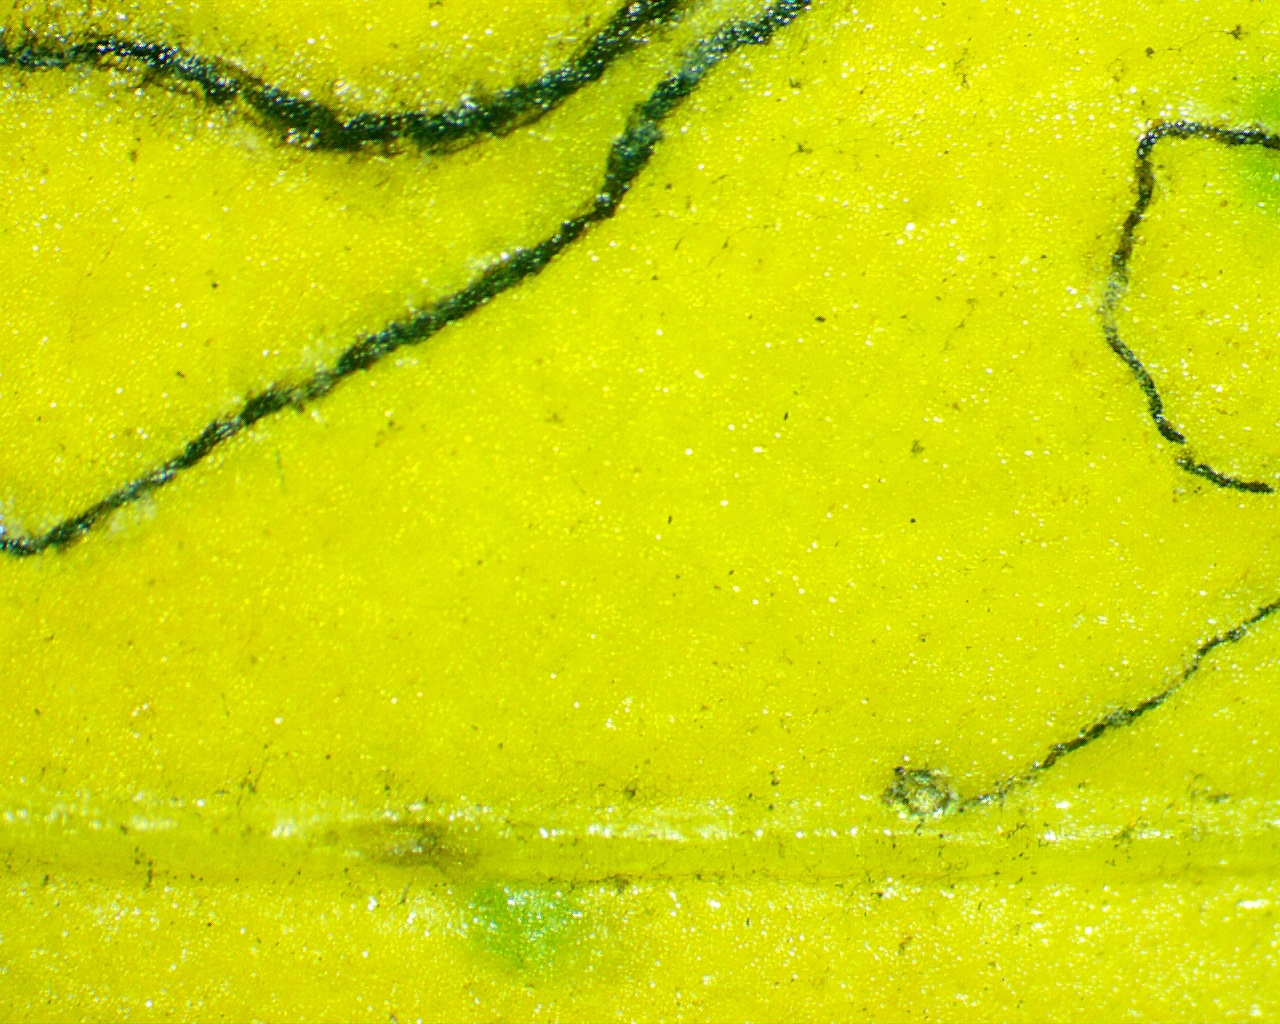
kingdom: Animalia
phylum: Arthropoda
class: Insecta
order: Lepidoptera
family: Bucculatricidae
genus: Bucculatrix
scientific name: Bucculatrix ivella
